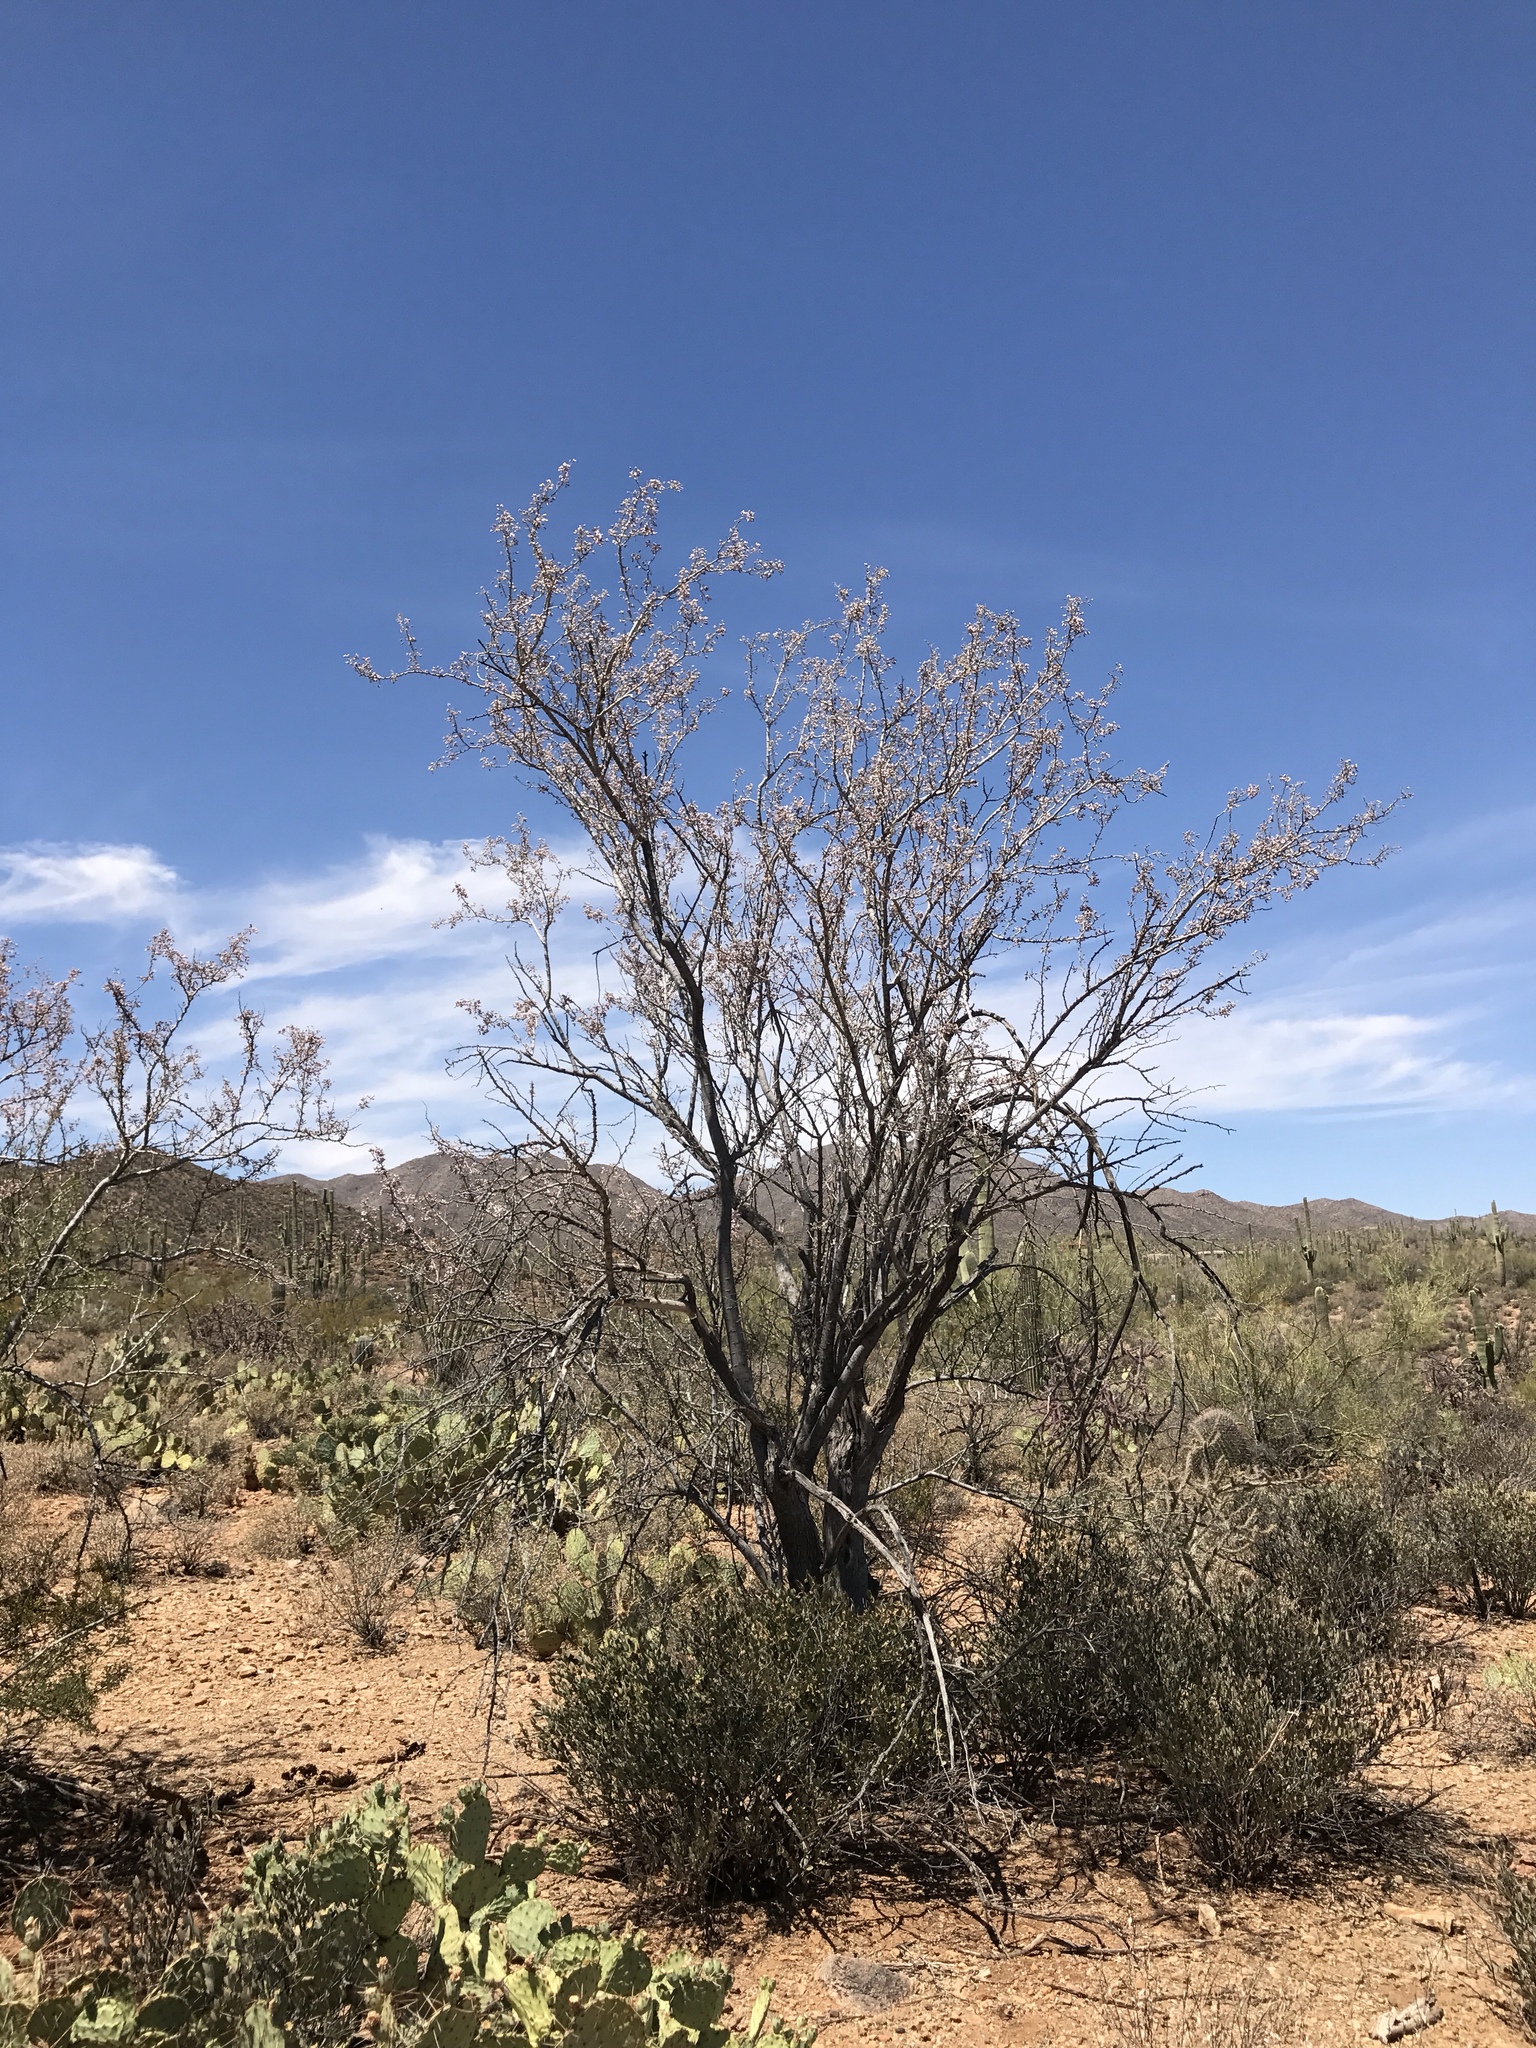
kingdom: Plantae
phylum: Tracheophyta
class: Magnoliopsida
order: Fabales
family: Fabaceae
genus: Olneya
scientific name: Olneya tesota
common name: Desert ironwood
